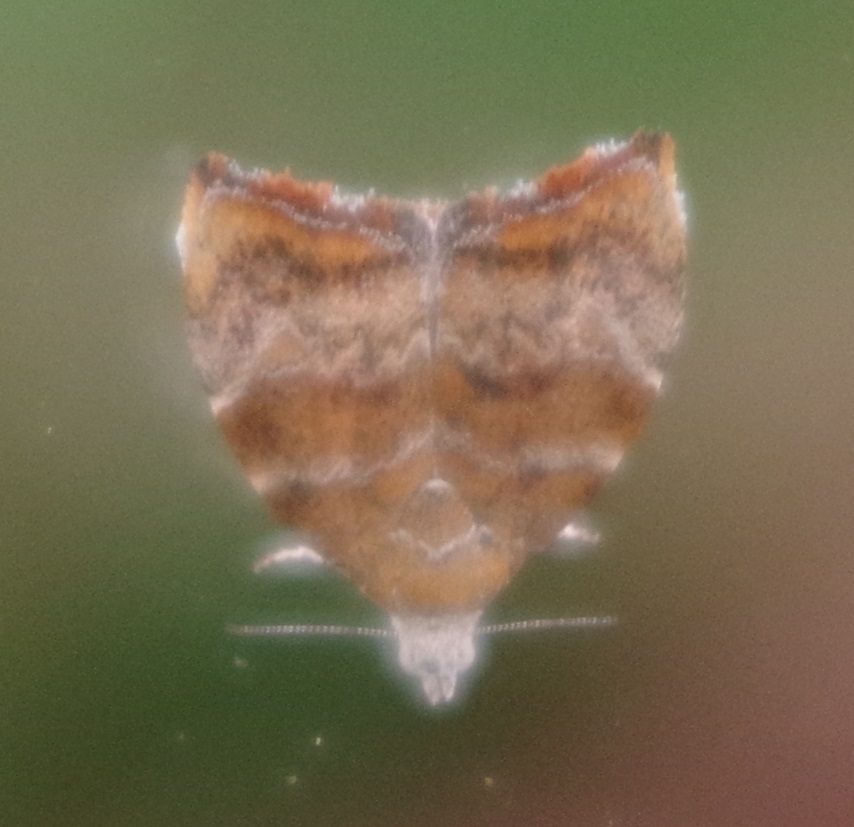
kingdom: Animalia
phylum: Arthropoda
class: Insecta
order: Lepidoptera
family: Choreutidae
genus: Anthophila
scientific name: Anthophila nemorana
